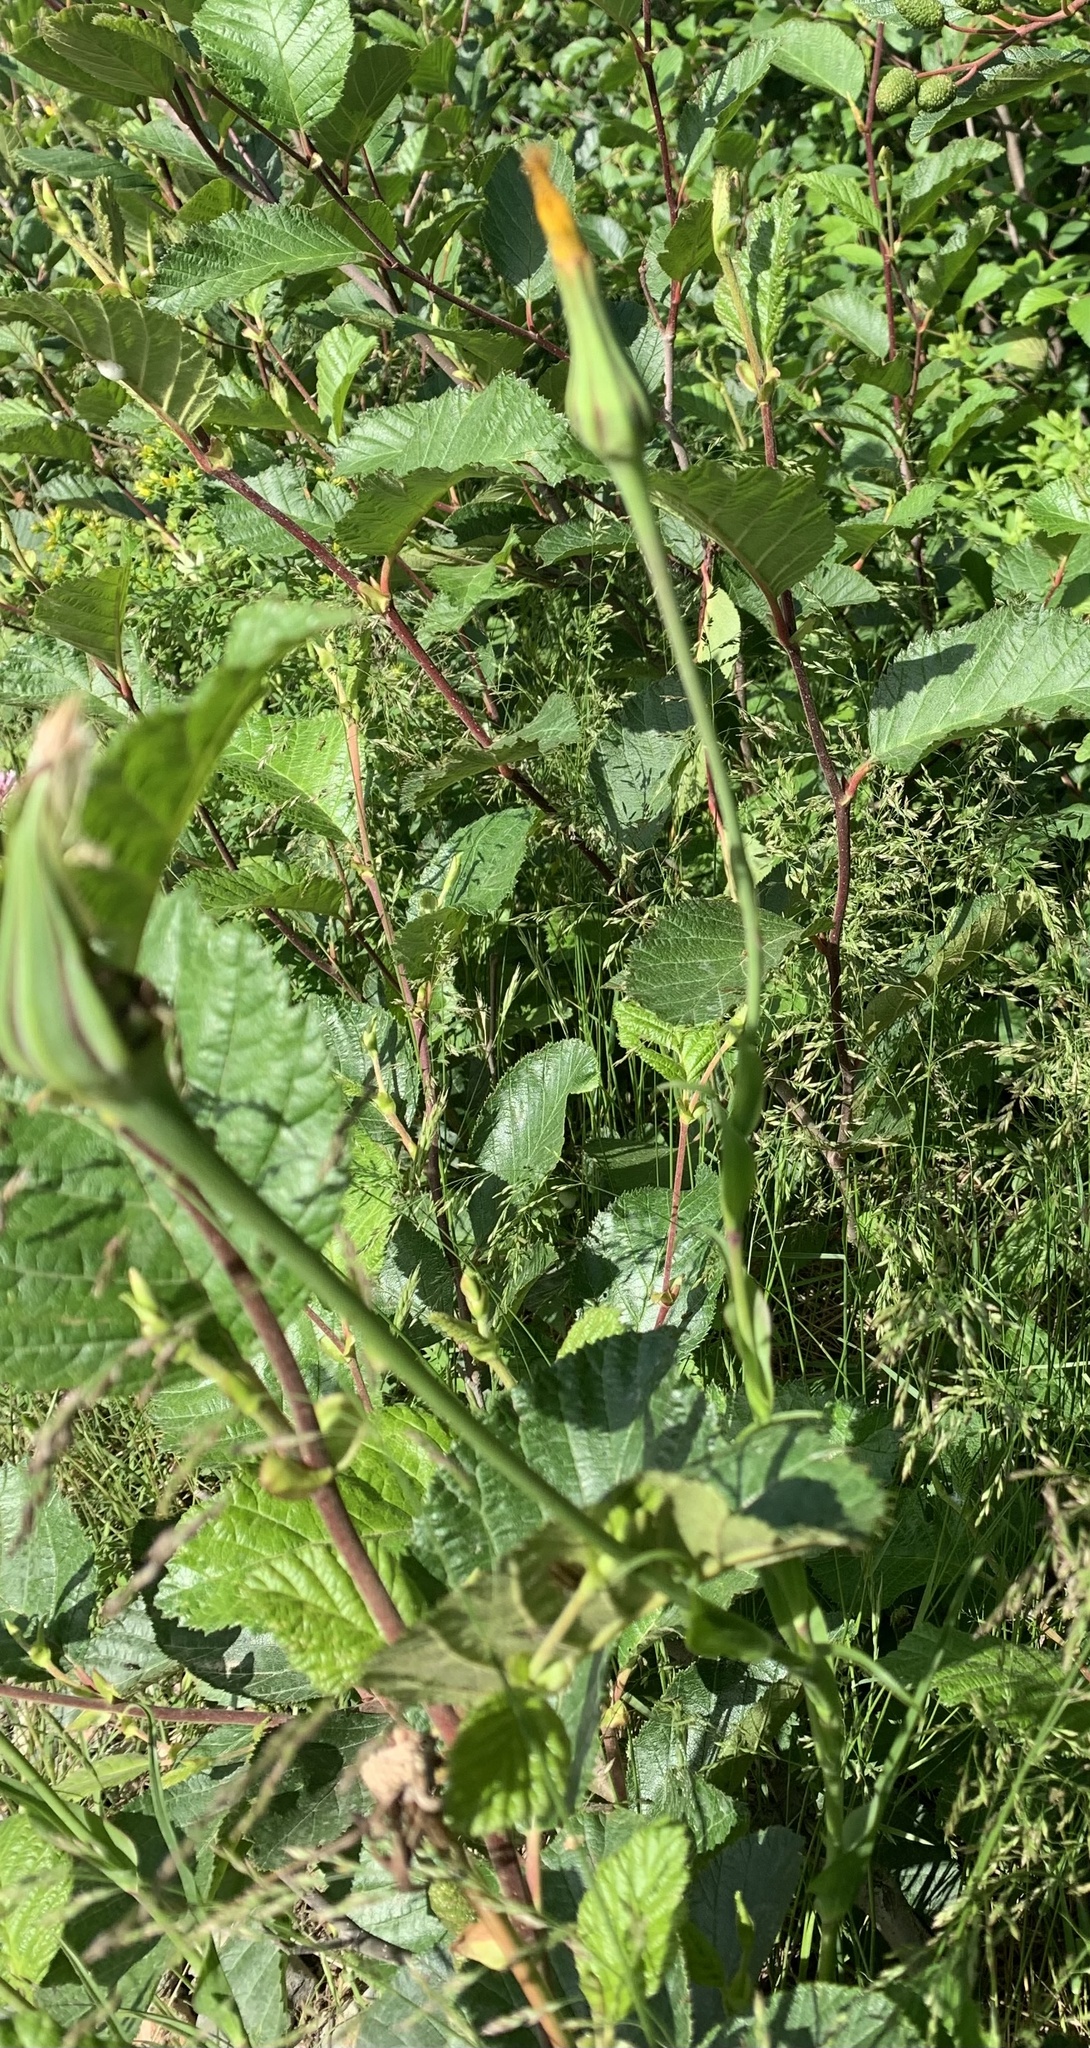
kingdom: Plantae
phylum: Tracheophyta
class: Magnoliopsida
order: Asterales
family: Asteraceae
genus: Tragopogon
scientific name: Tragopogon pratensis
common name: Goat's-beard
